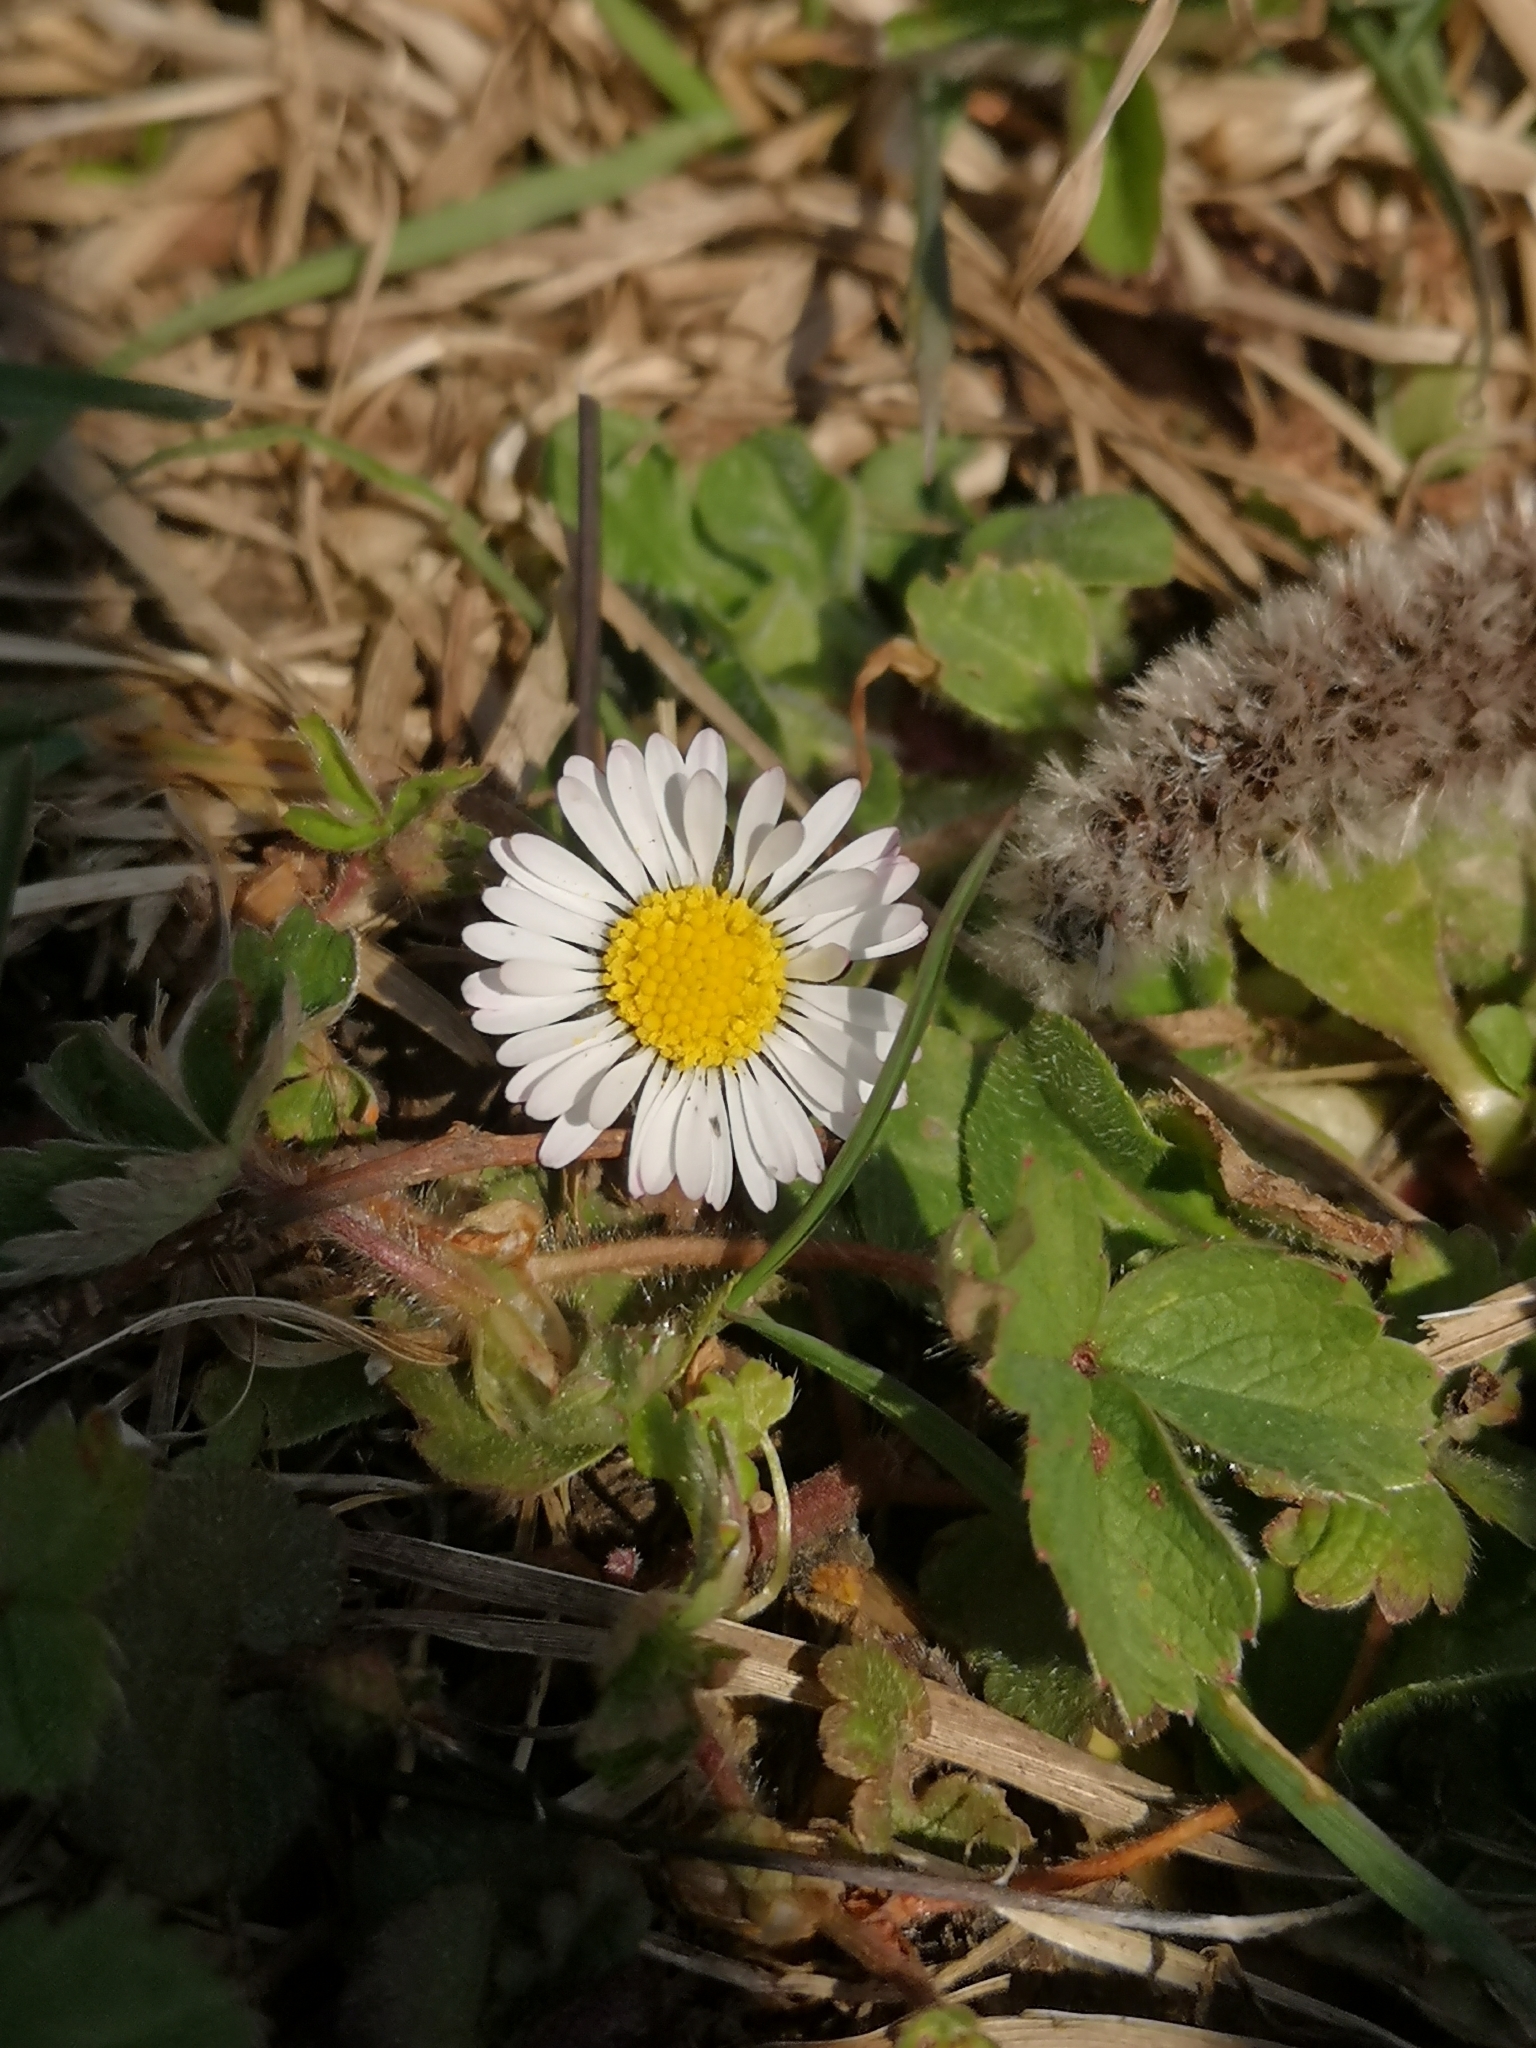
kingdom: Plantae
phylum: Tracheophyta
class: Magnoliopsida
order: Asterales
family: Asteraceae
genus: Bellis
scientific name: Bellis perennis
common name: Lawndaisy
